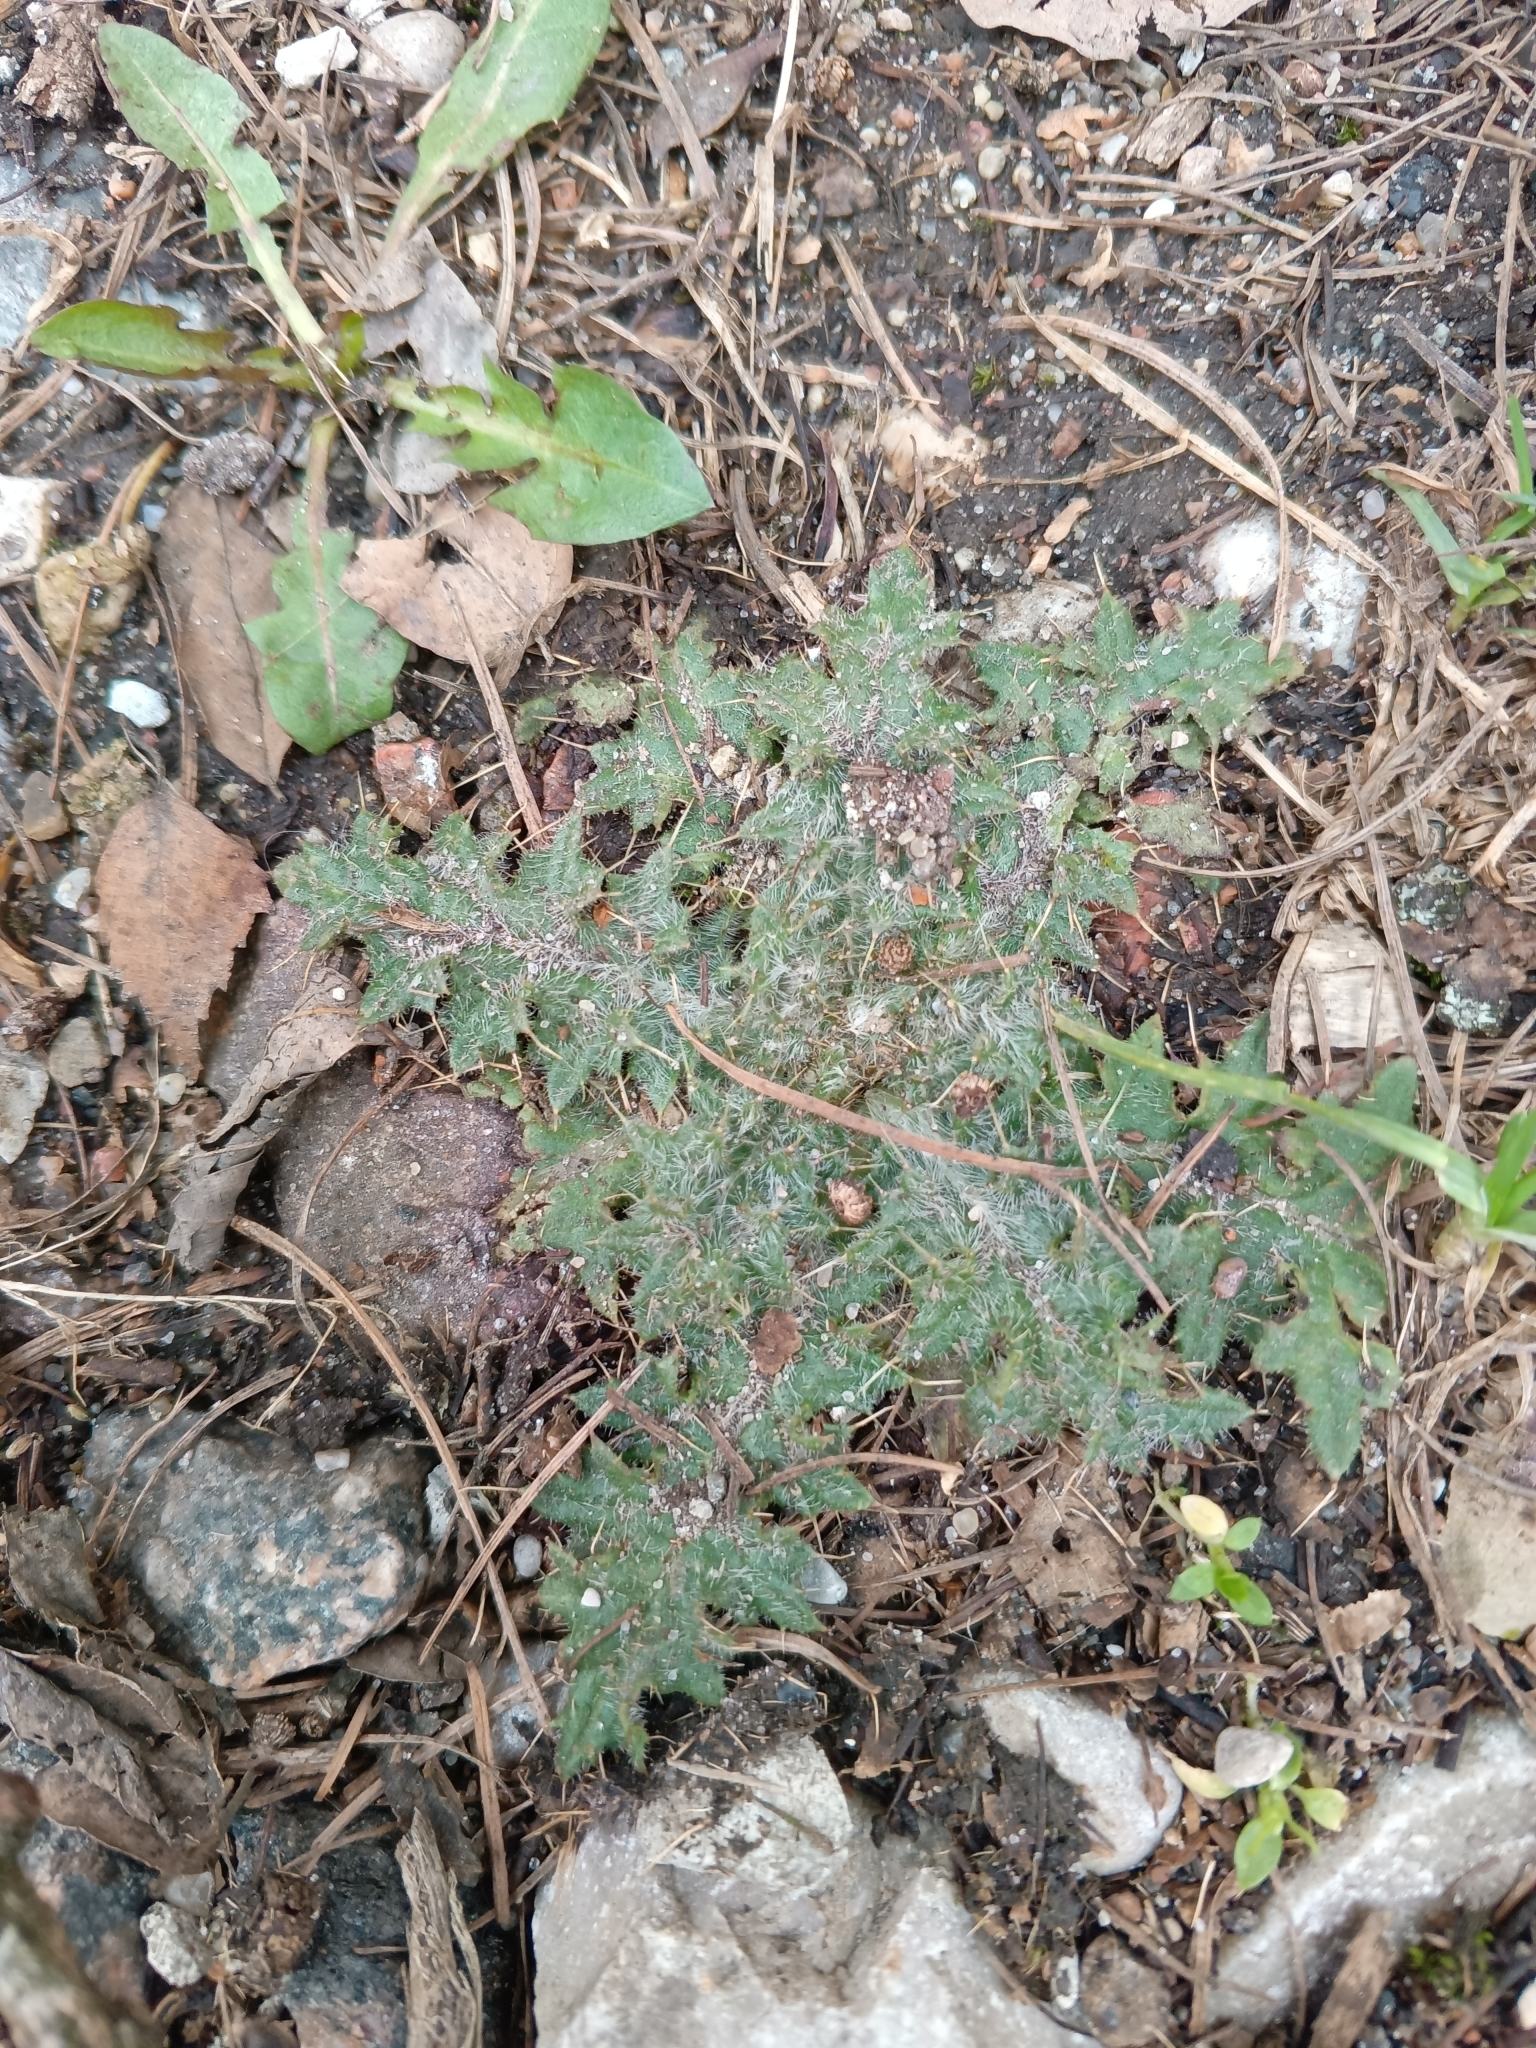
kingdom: Plantae
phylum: Tracheophyta
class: Magnoliopsida
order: Asterales
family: Asteraceae
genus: Cirsium
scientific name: Cirsium vulgare
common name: Bull thistle
